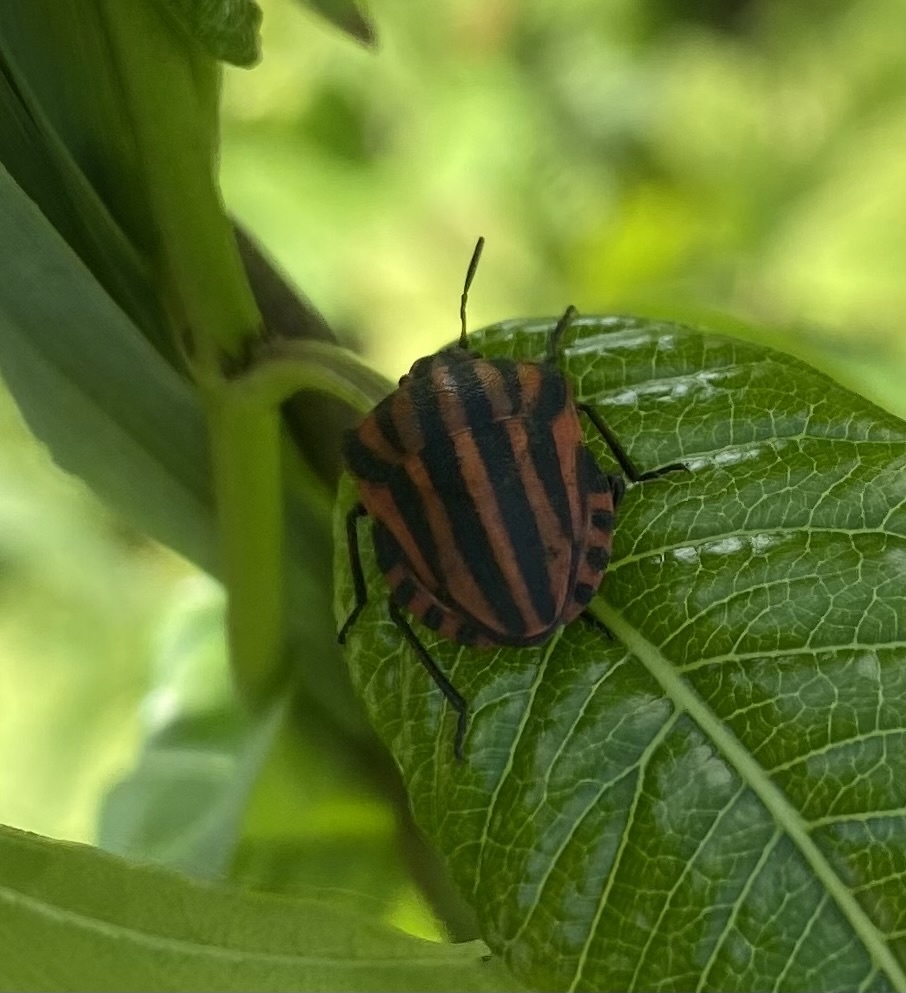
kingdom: Animalia
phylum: Arthropoda
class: Insecta
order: Hemiptera
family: Pentatomidae
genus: Graphosoma
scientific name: Graphosoma italicum
